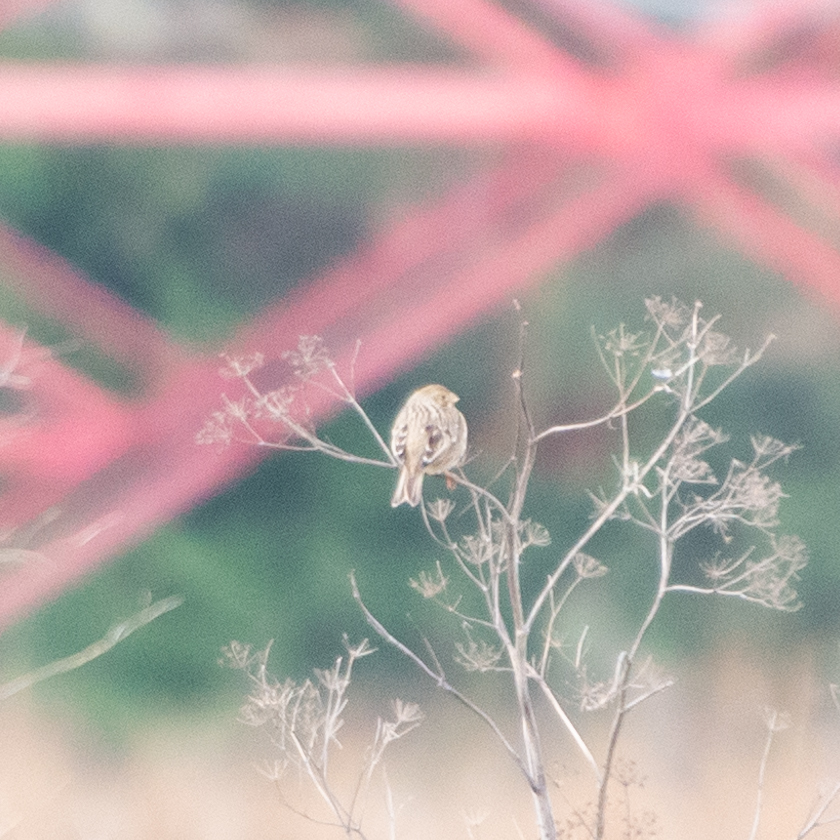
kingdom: Animalia
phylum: Chordata
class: Aves
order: Passeriformes
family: Emberizidae
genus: Emberiza
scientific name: Emberiza calandra
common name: Corn bunting
